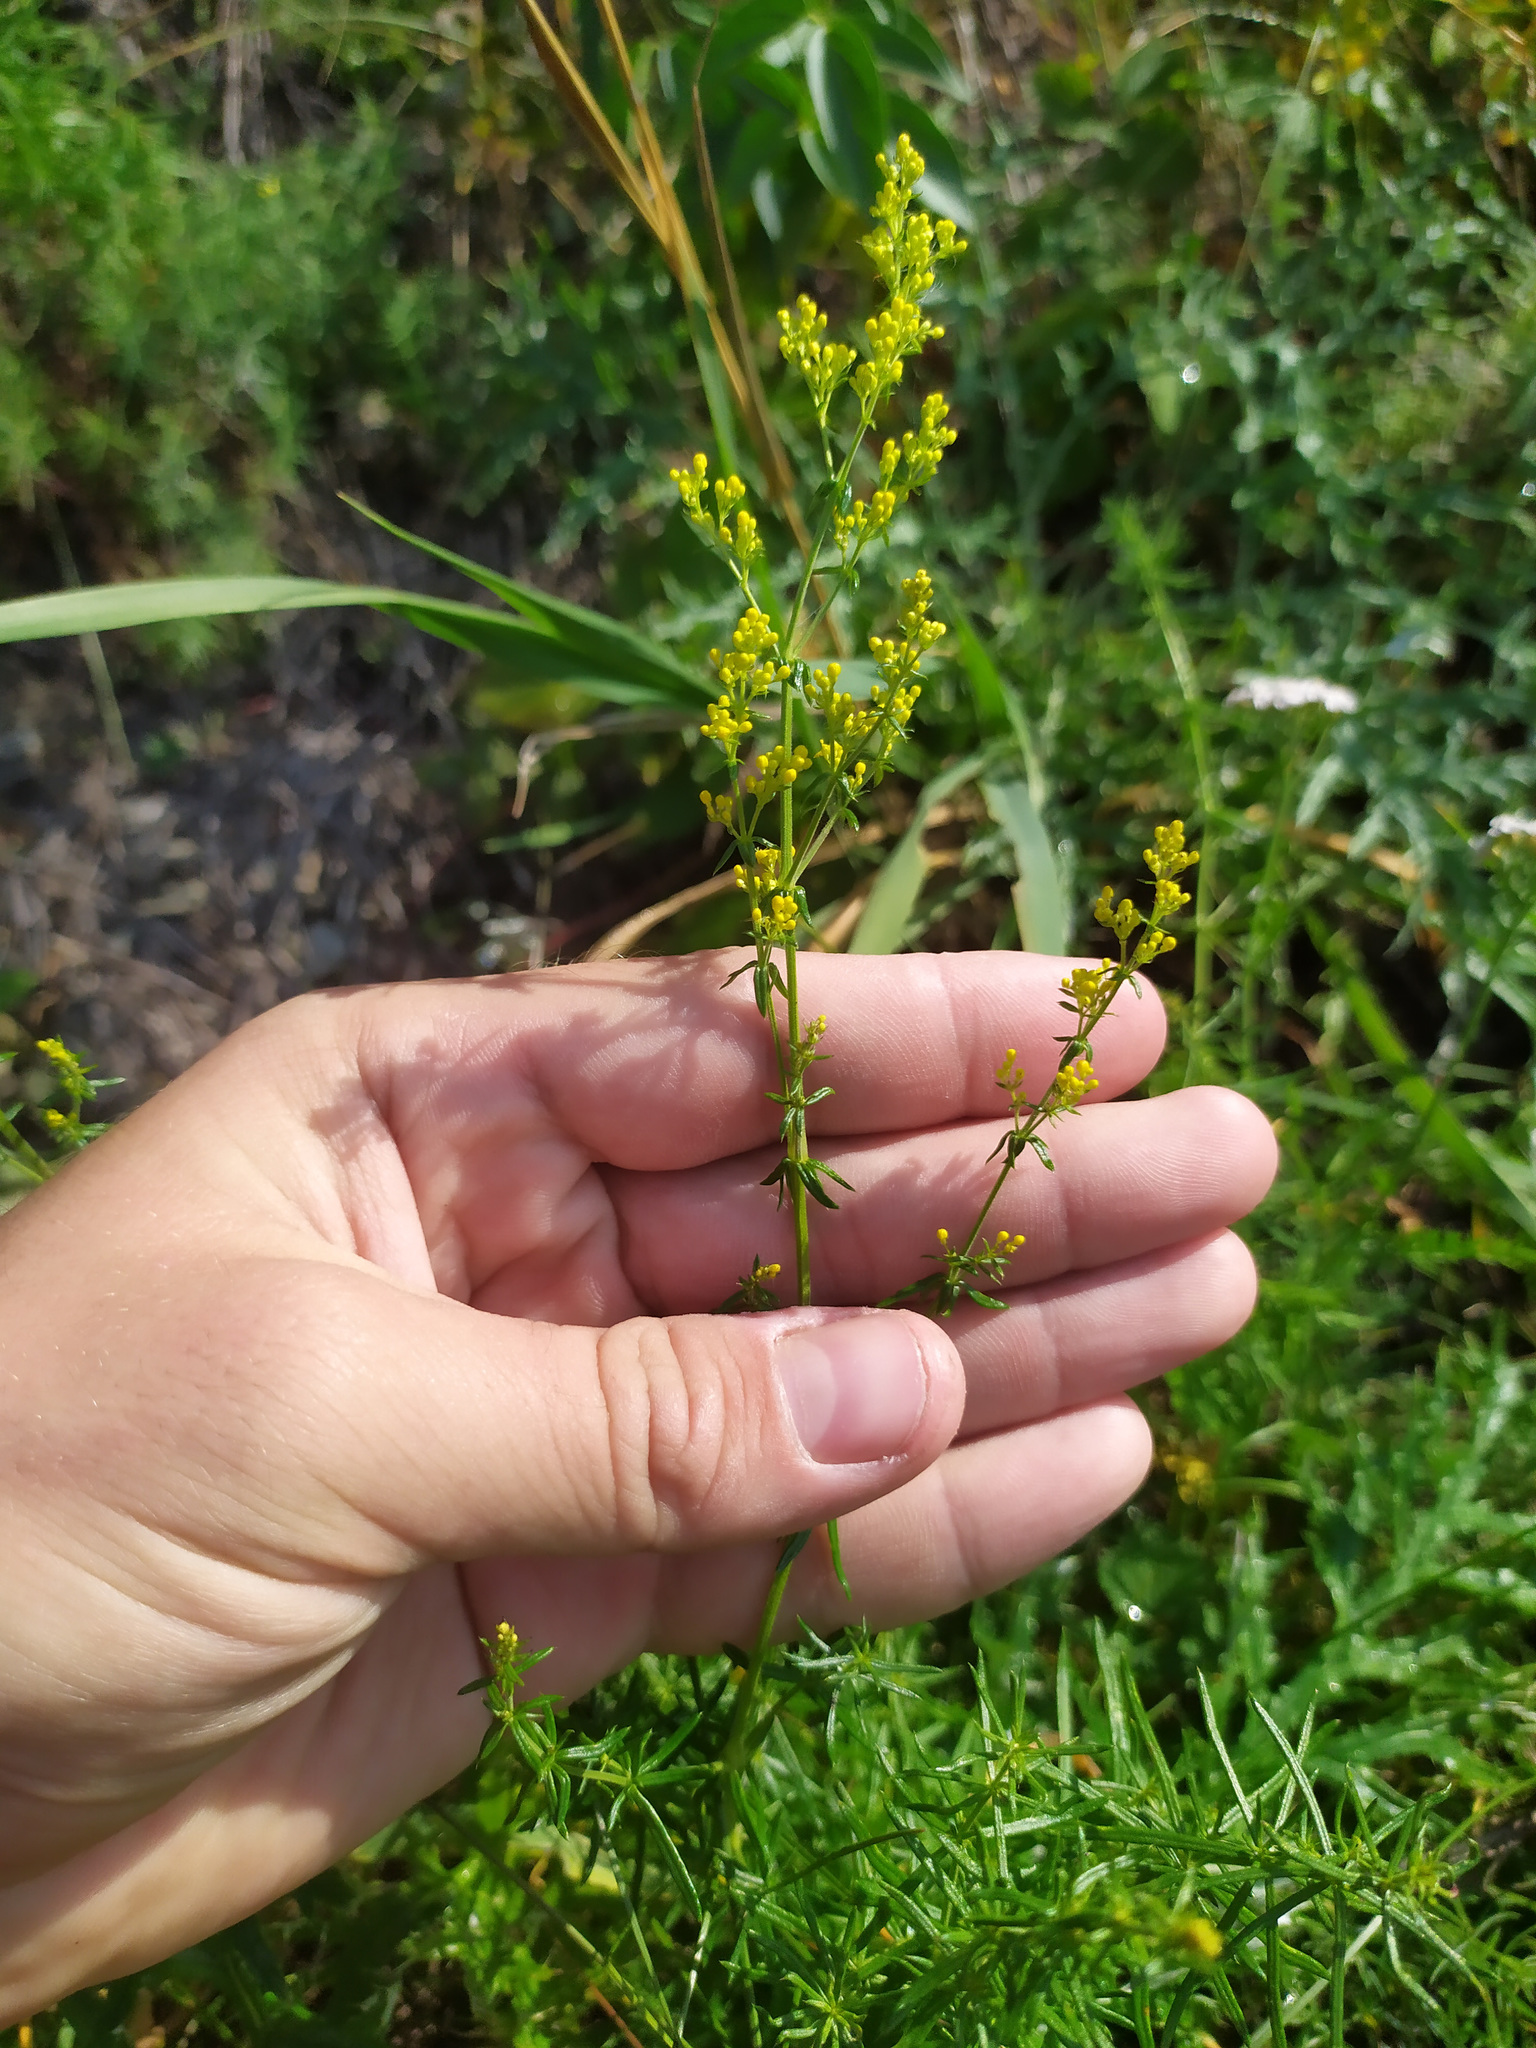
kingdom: Plantae
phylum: Tracheophyta
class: Magnoliopsida
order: Gentianales
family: Rubiaceae
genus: Galium
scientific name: Galium verum
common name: Lady's bedstraw
